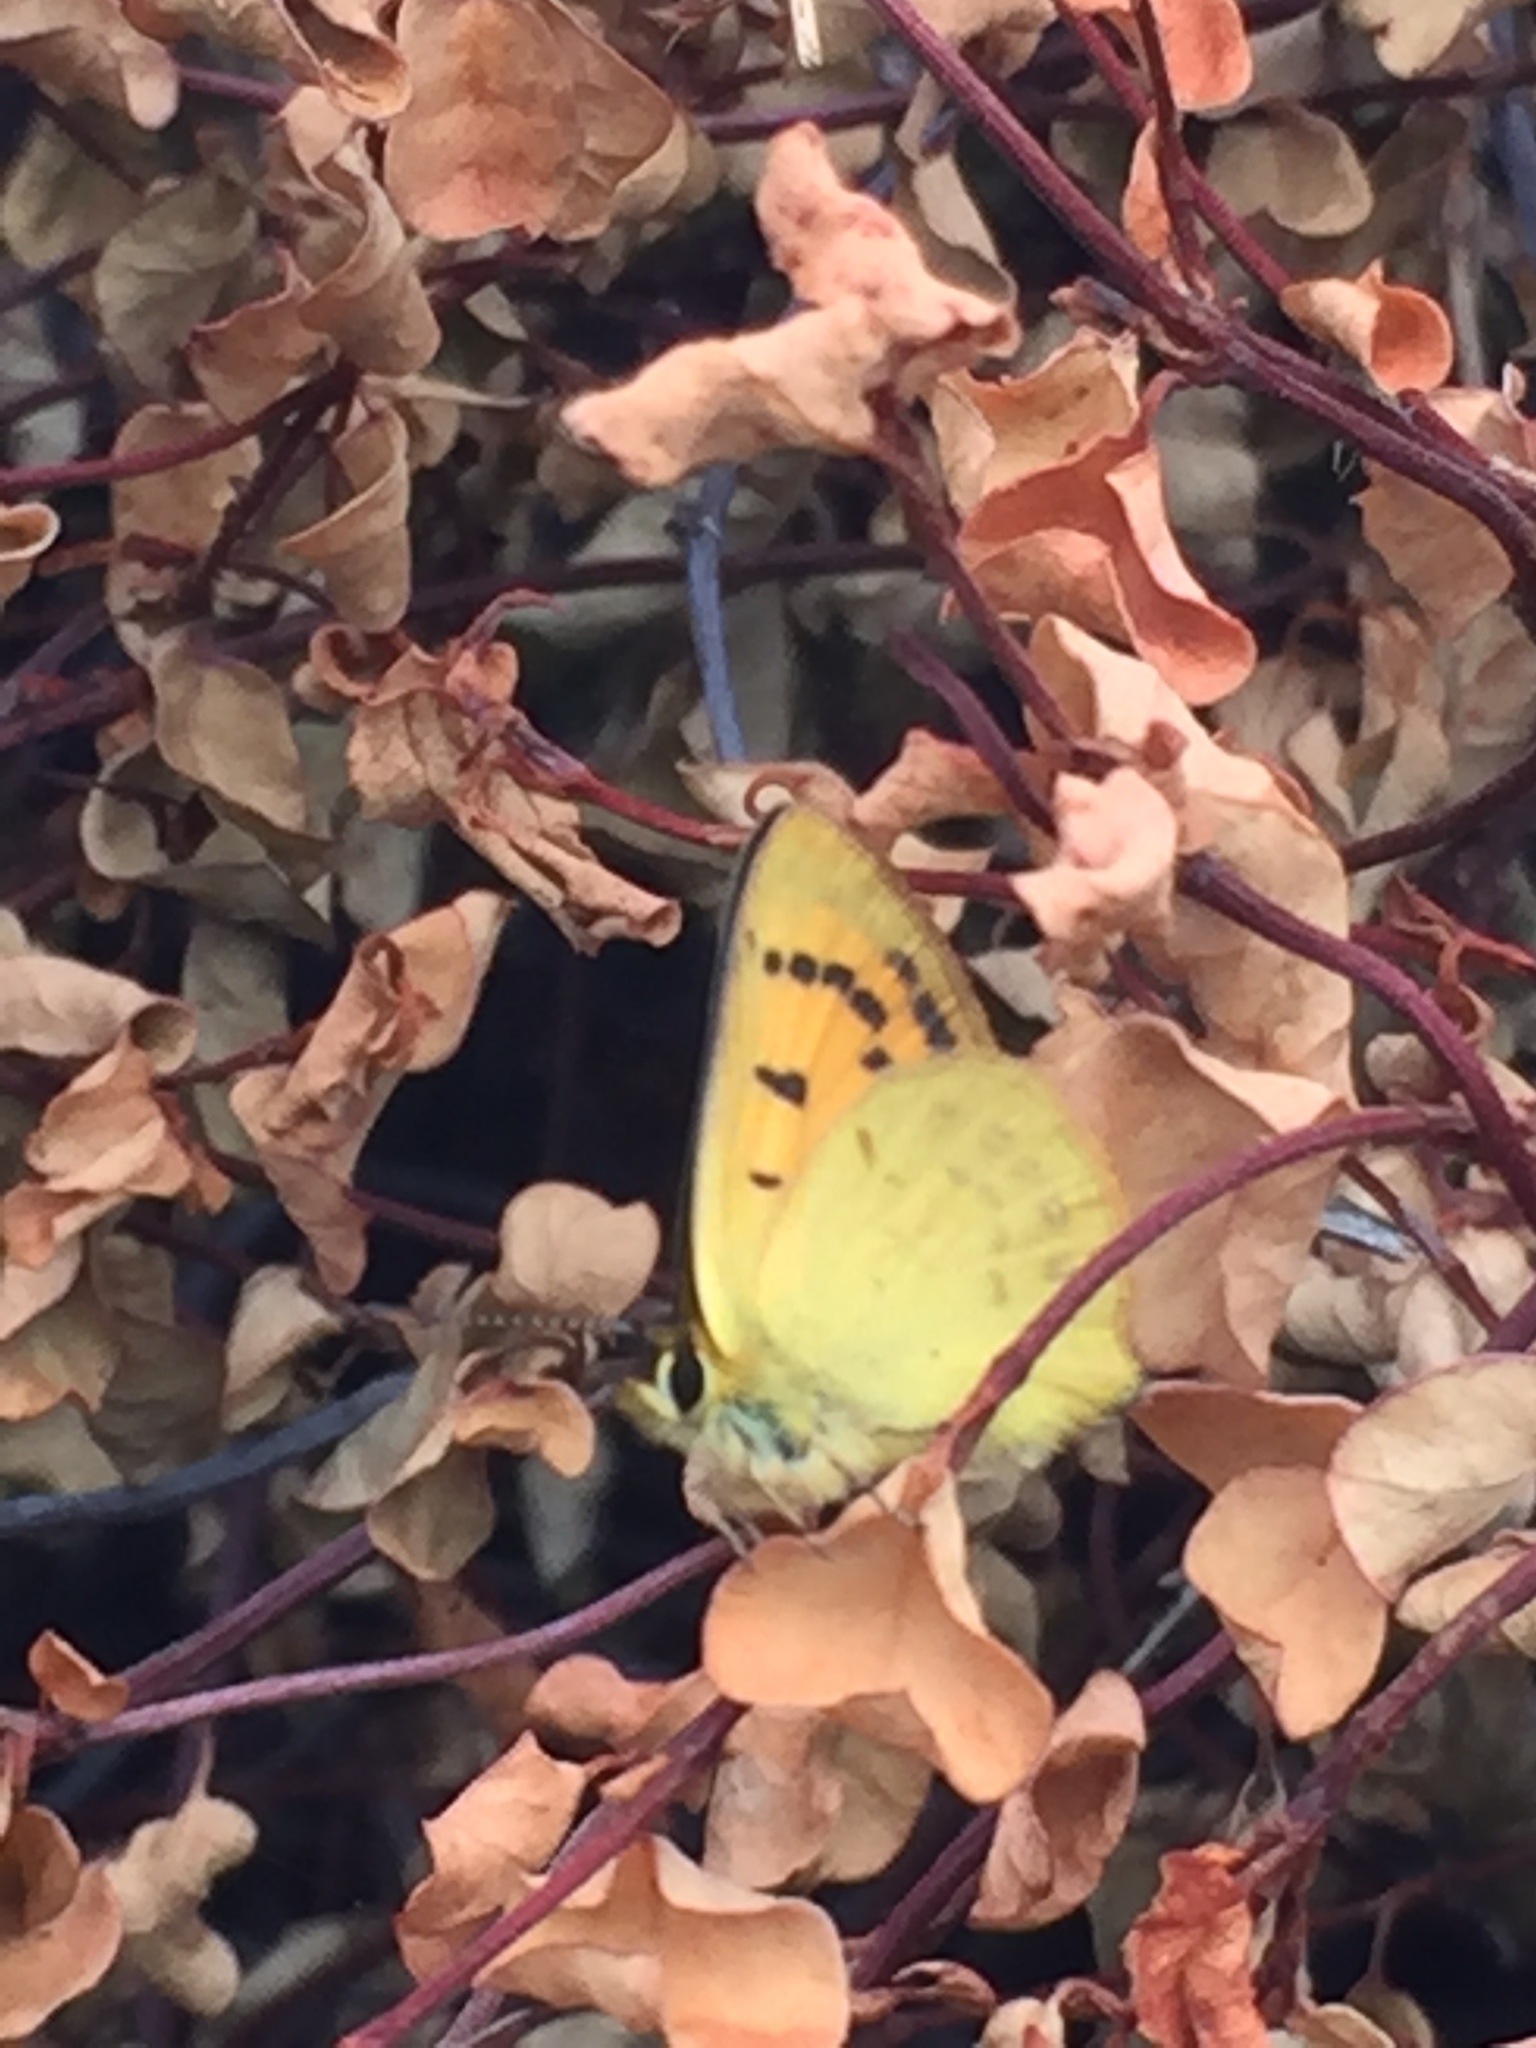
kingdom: Animalia
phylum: Arthropoda
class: Insecta
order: Lepidoptera
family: Lycaenidae
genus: Lycaena
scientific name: Lycaena salustius
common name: North island coastal copper
